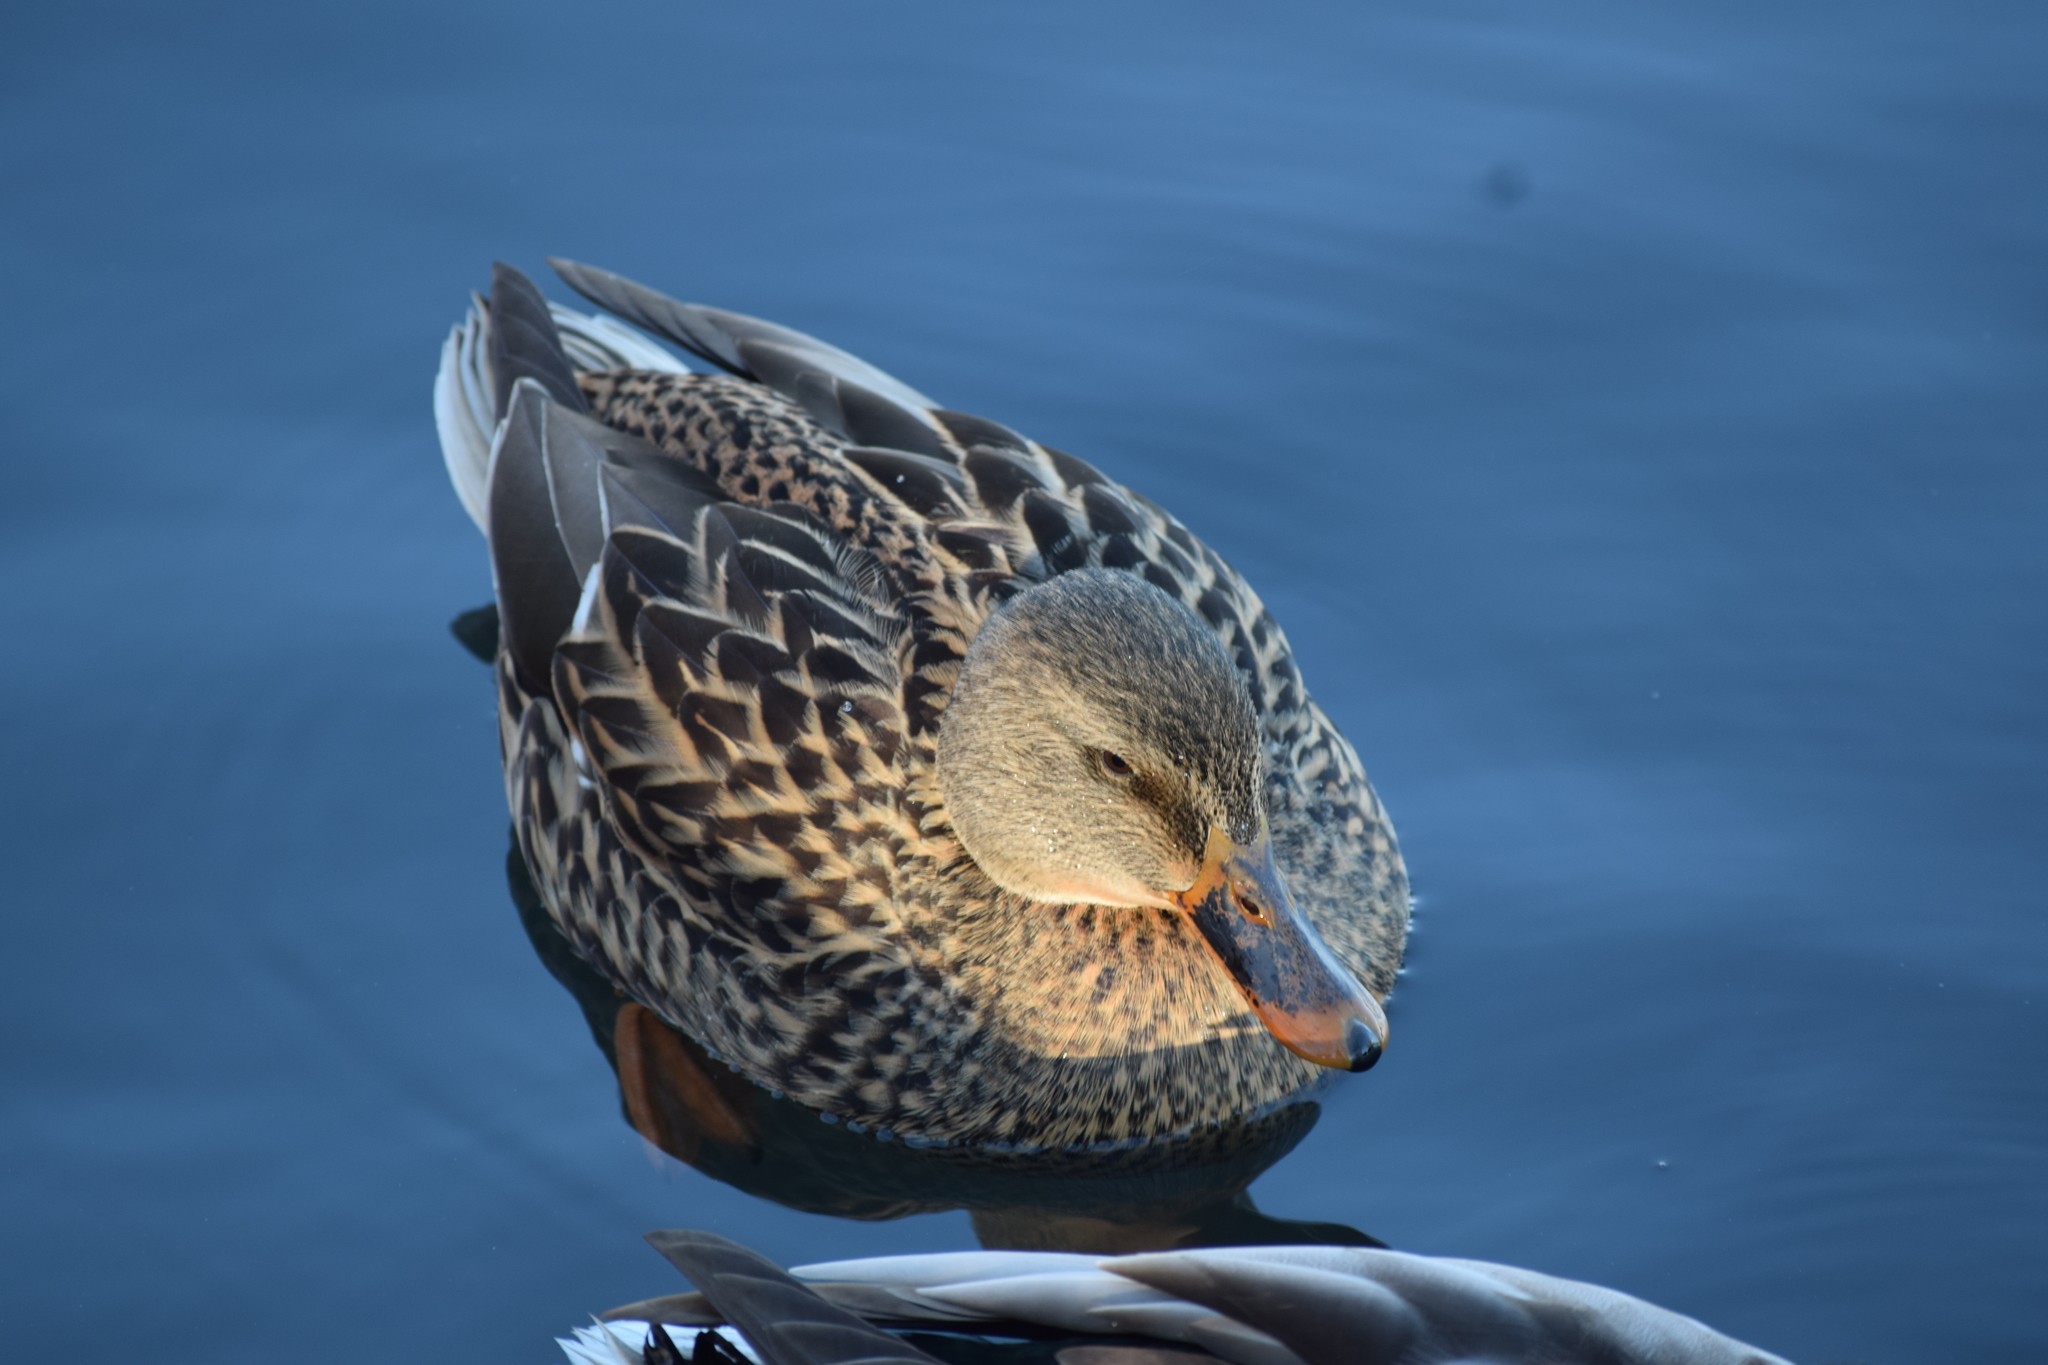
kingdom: Animalia
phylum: Chordata
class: Aves
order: Anseriformes
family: Anatidae
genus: Anas
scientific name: Anas platyrhynchos
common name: Mallard
